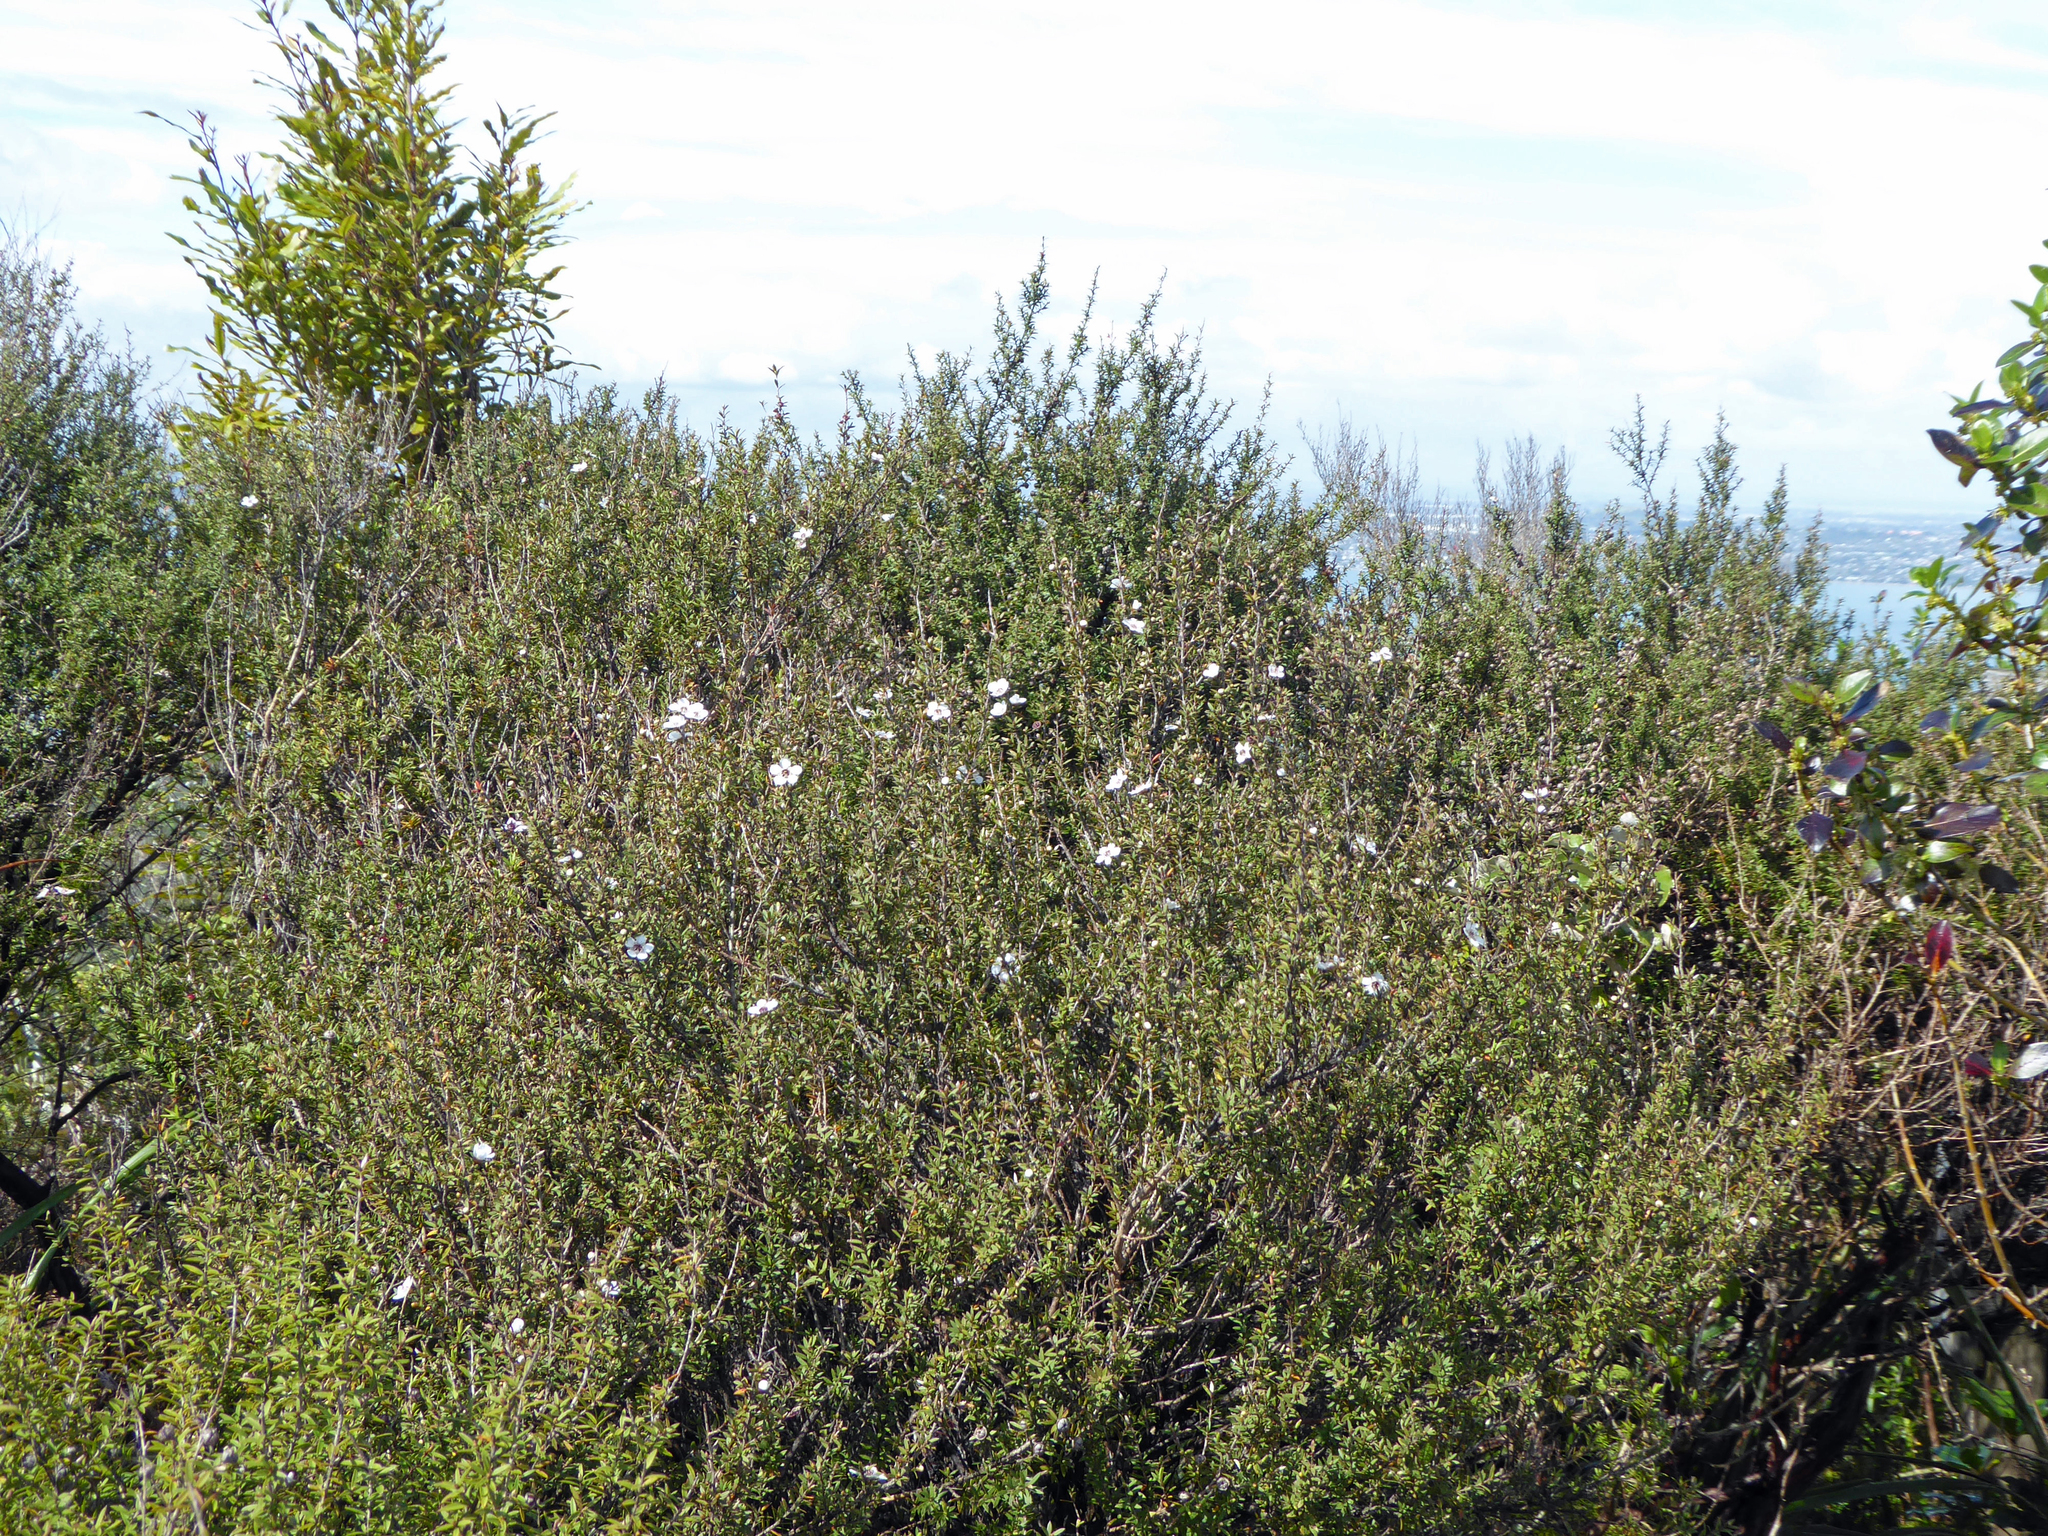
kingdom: Plantae
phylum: Tracheophyta
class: Magnoliopsida
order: Myrtales
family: Myrtaceae
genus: Leptospermum
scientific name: Leptospermum scoparium
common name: Broom tea-tree
